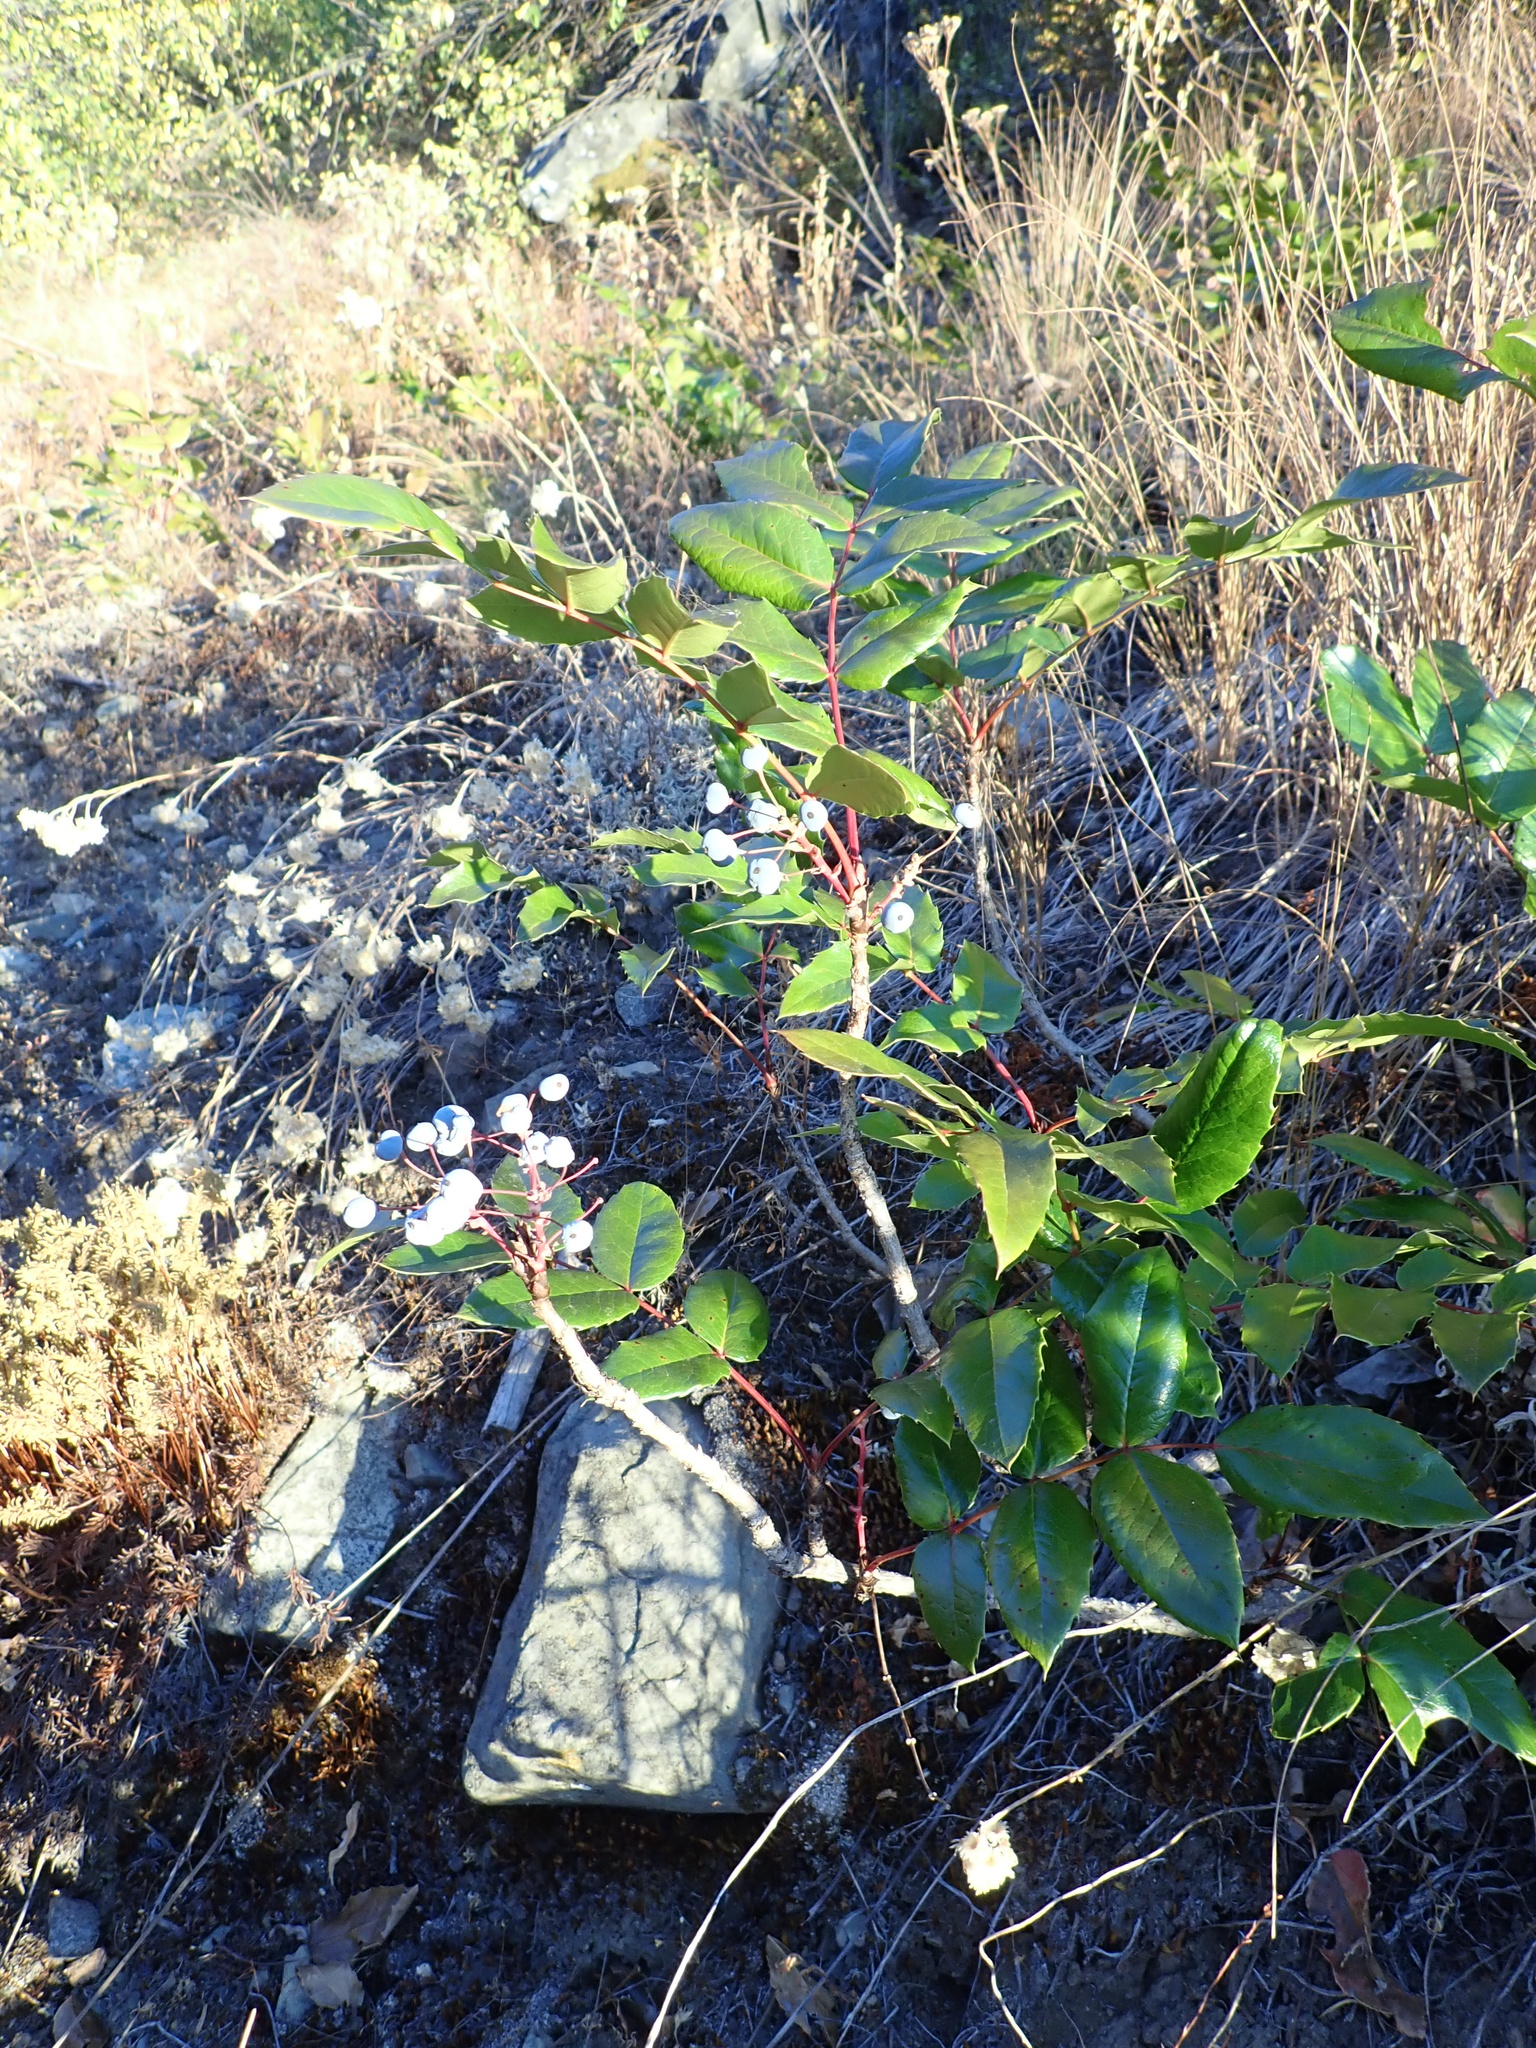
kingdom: Plantae
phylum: Tracheophyta
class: Magnoliopsida
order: Ranunculales
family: Berberidaceae
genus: Mahonia
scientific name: Mahonia aquifolium
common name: Oregon-grape
